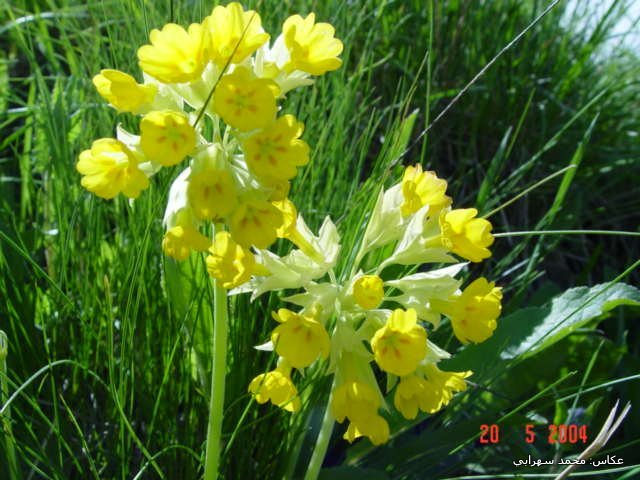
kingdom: Plantae
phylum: Tracheophyta
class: Magnoliopsida
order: Ericales
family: Primulaceae
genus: Primula
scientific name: Primula veris
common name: Cowslip
